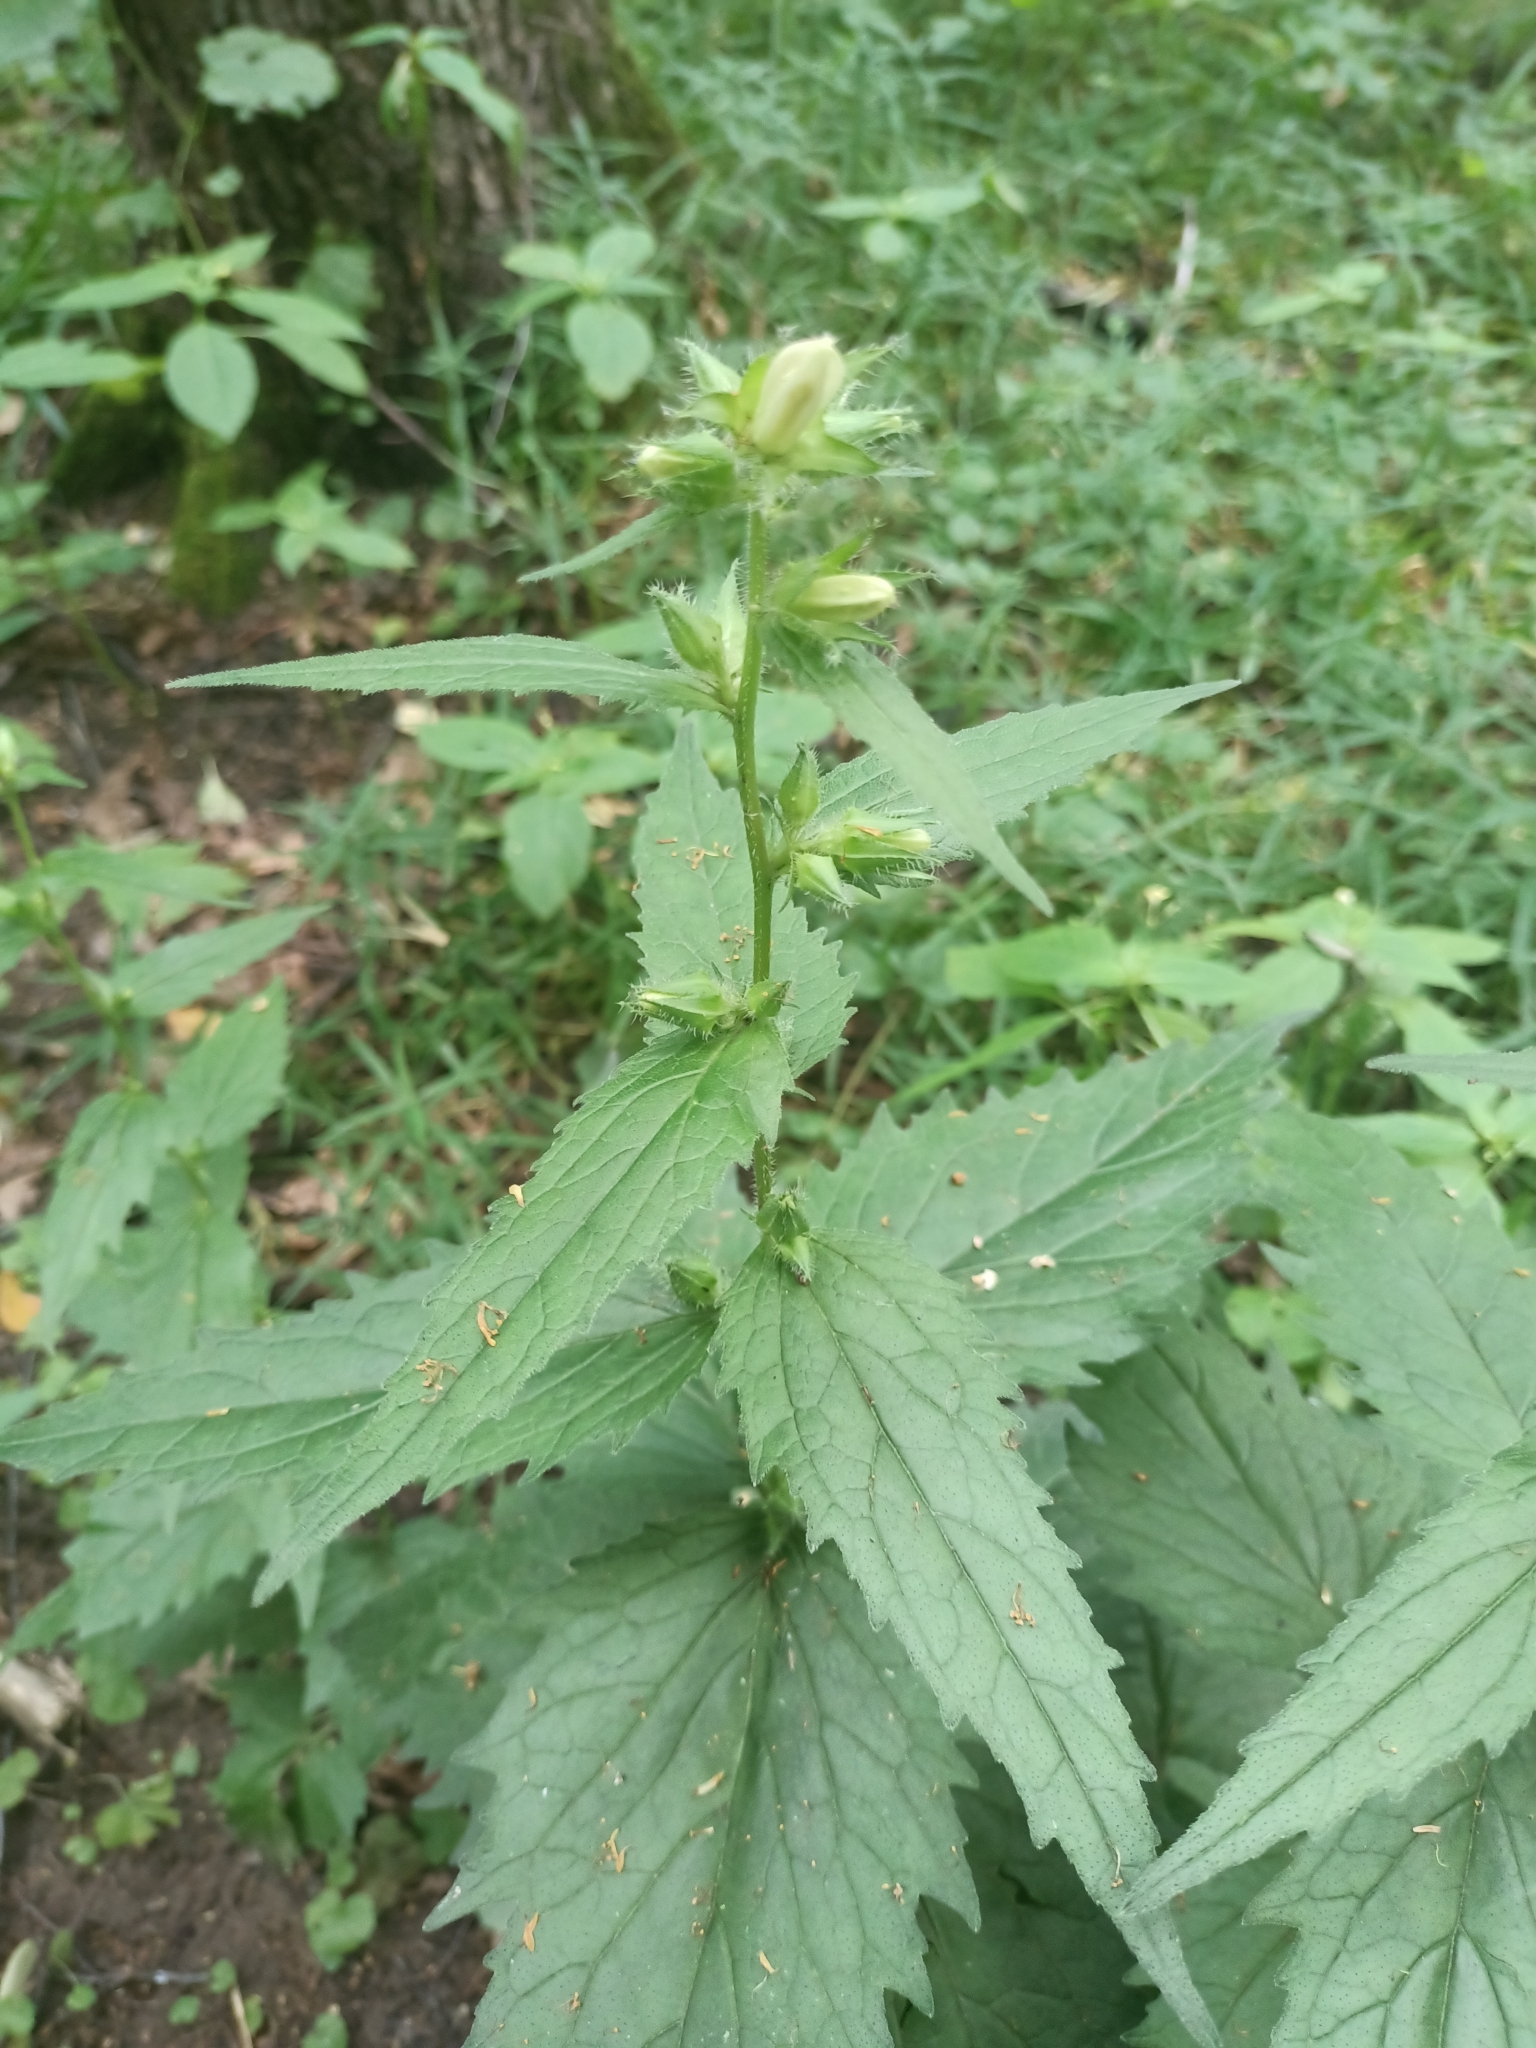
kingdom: Plantae
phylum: Tracheophyta
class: Magnoliopsida
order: Asterales
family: Campanulaceae
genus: Campanula
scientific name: Campanula trachelium
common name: Nettle-leaved bellflower
